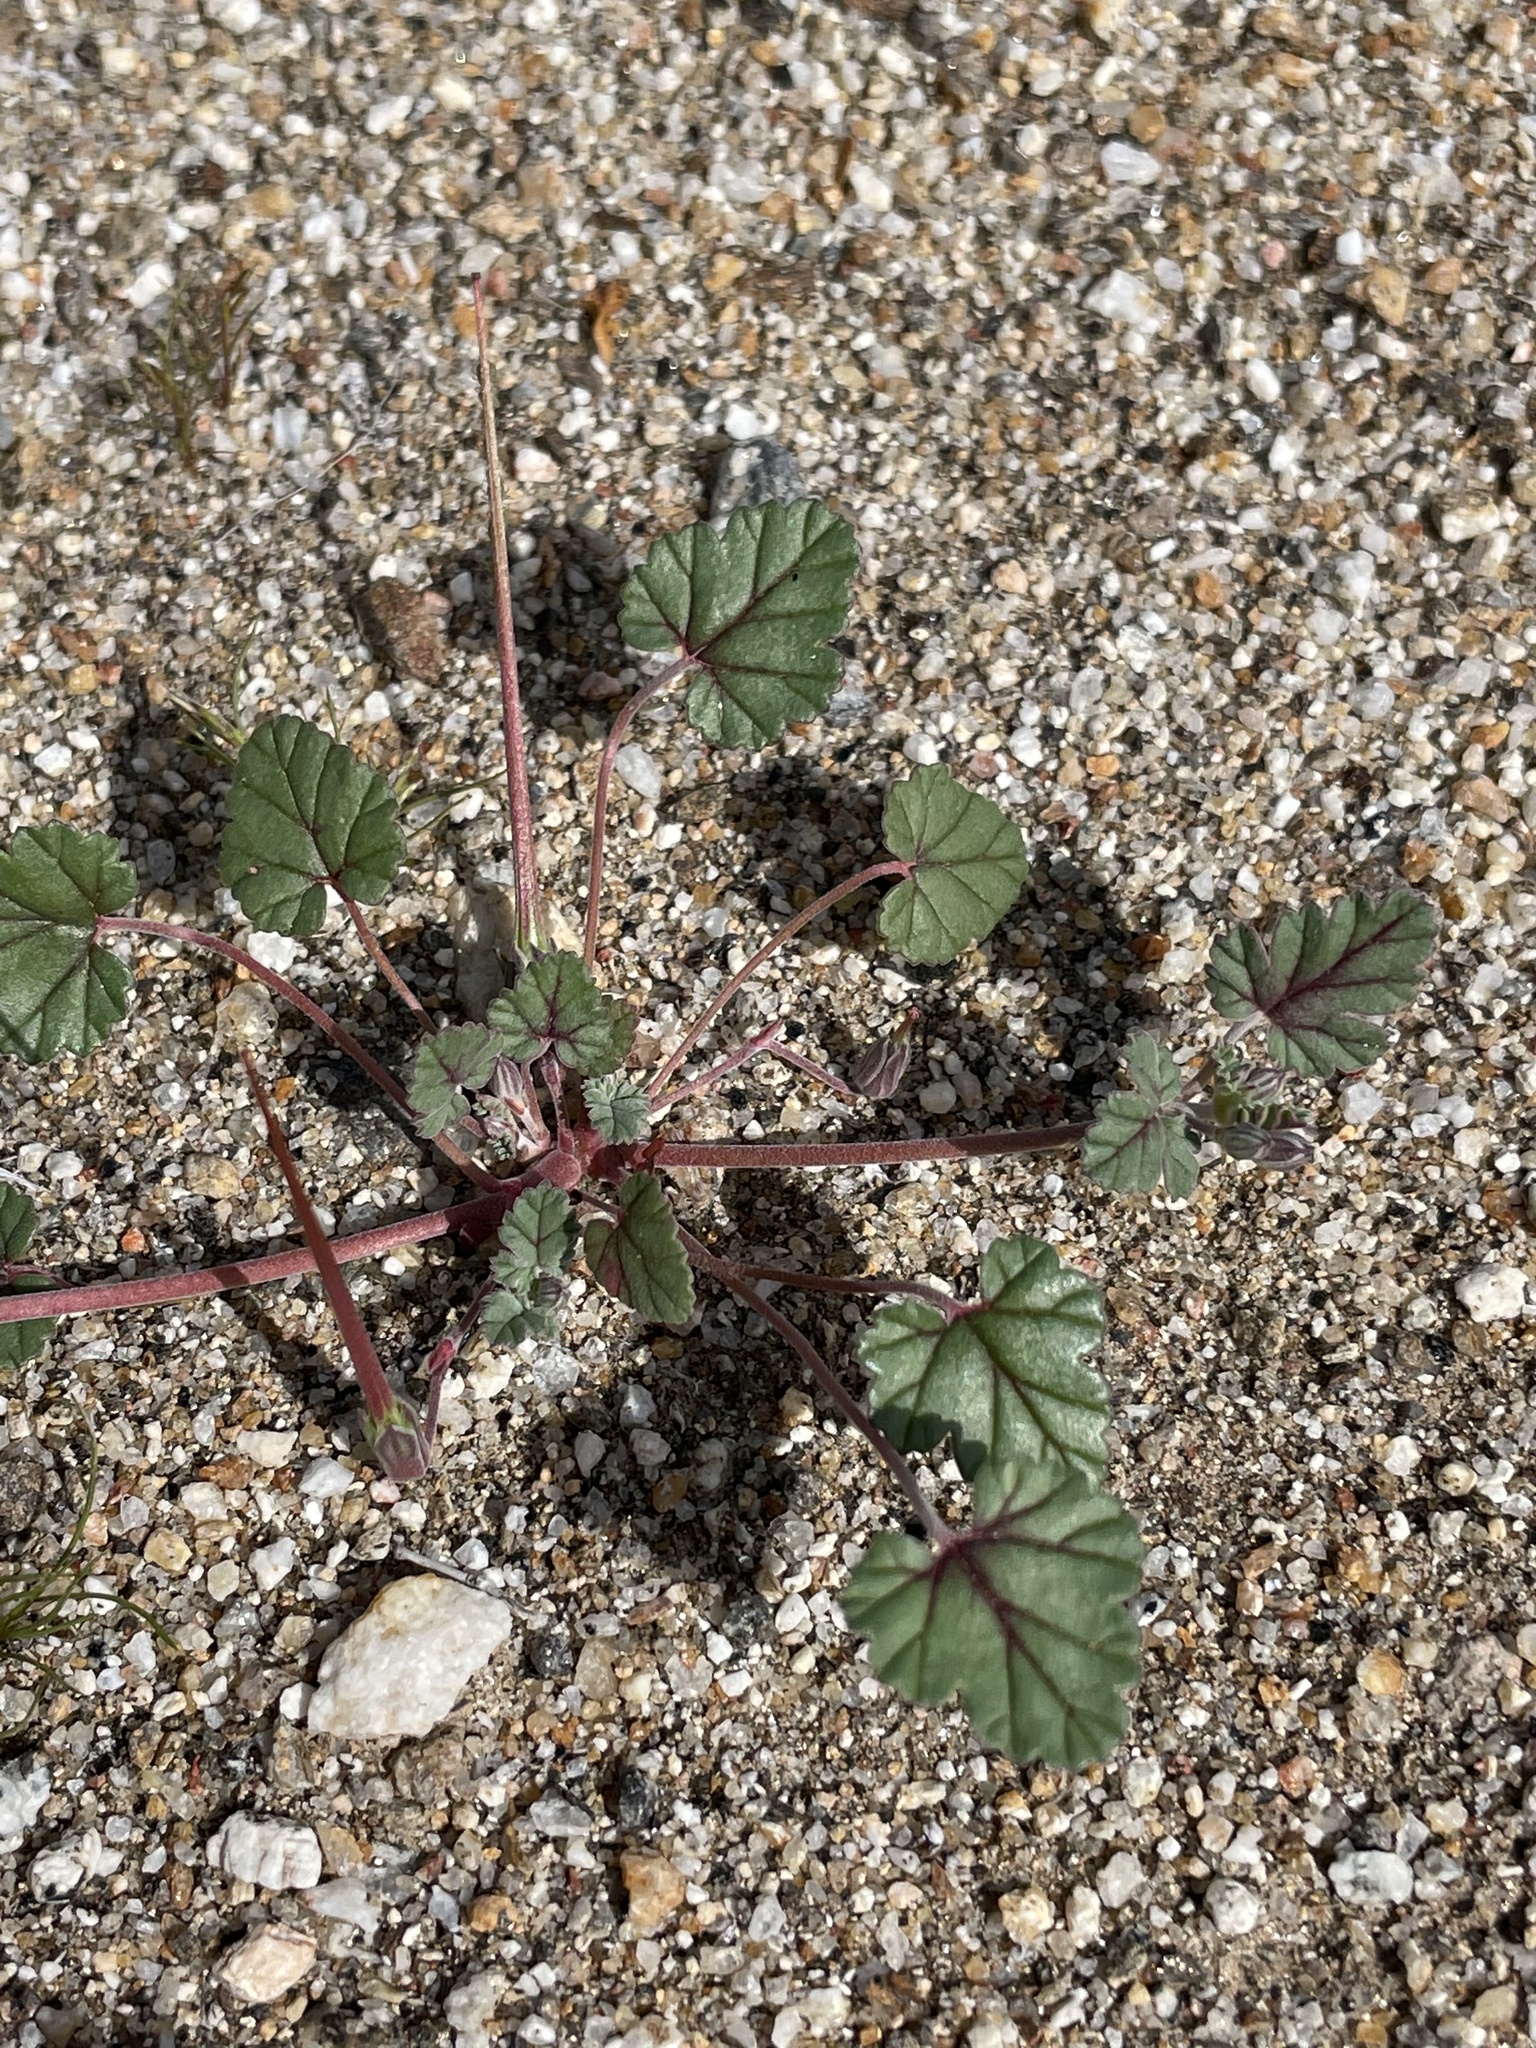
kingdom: Plantae
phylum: Tracheophyta
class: Magnoliopsida
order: Geraniales
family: Geraniaceae
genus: Erodium
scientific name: Erodium texanum
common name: Texas stork's-bill
